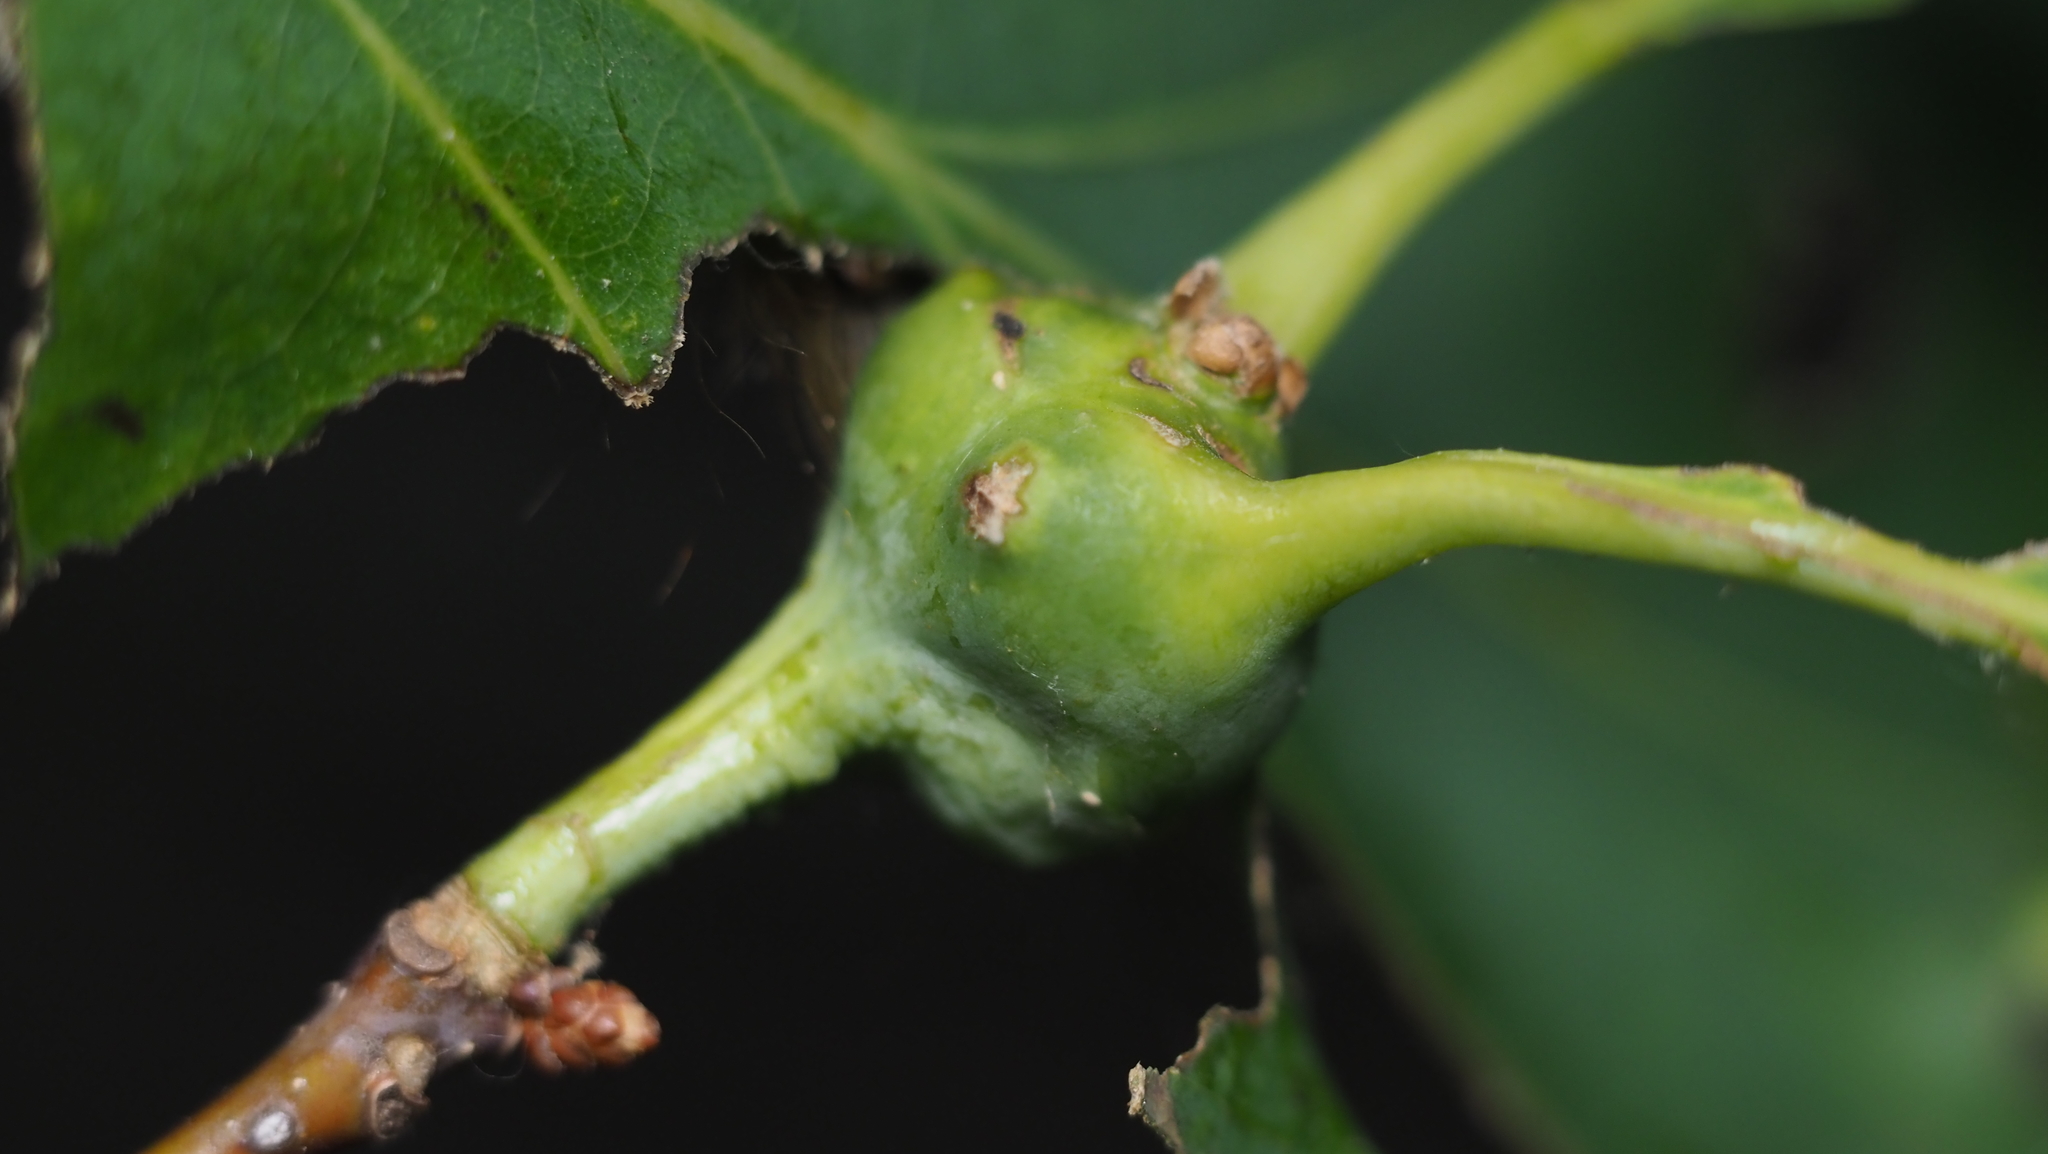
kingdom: Animalia
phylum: Arthropoda
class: Insecta
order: Hymenoptera
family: Cynipidae
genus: Callirhytis
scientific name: Callirhytis clavula
